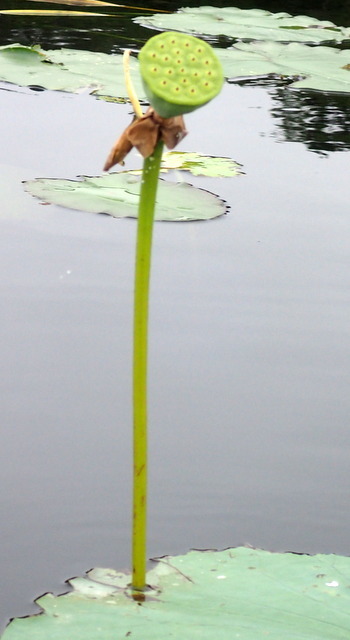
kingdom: Plantae
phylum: Tracheophyta
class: Magnoliopsida
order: Proteales
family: Nelumbonaceae
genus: Nelumbo
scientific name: Nelumbo lutea
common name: American lotus
